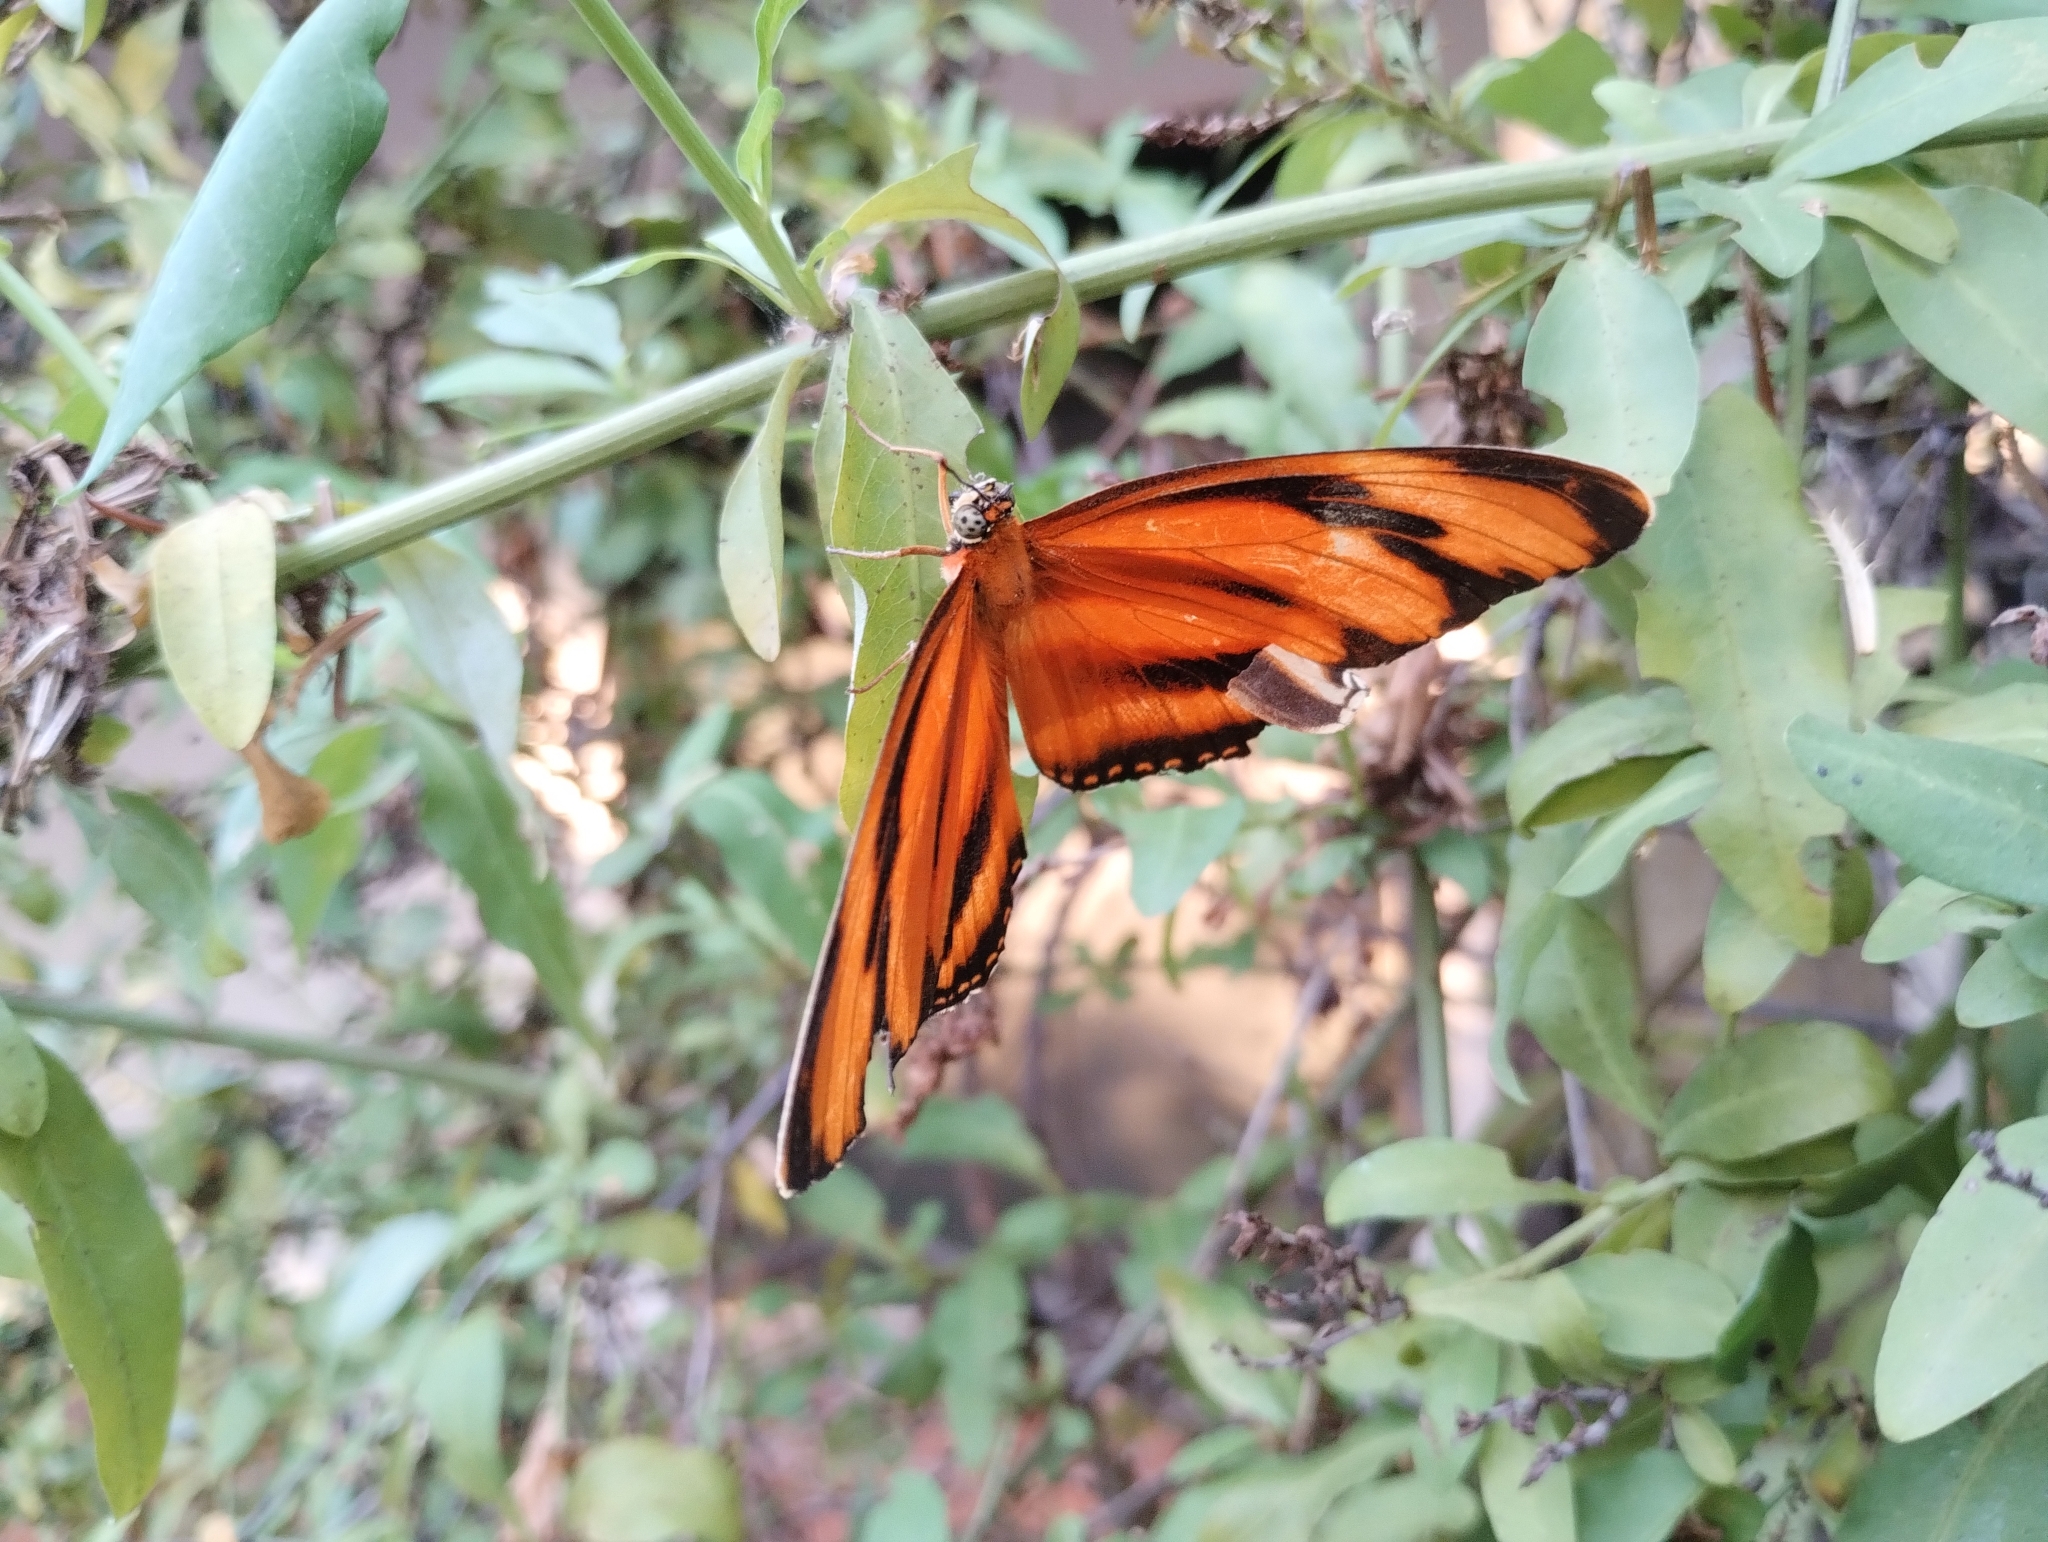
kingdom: Animalia
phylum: Arthropoda
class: Insecta
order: Lepidoptera
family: Nymphalidae
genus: Dryadula
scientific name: Dryadula phaetusa
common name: Banded orange heliconian
